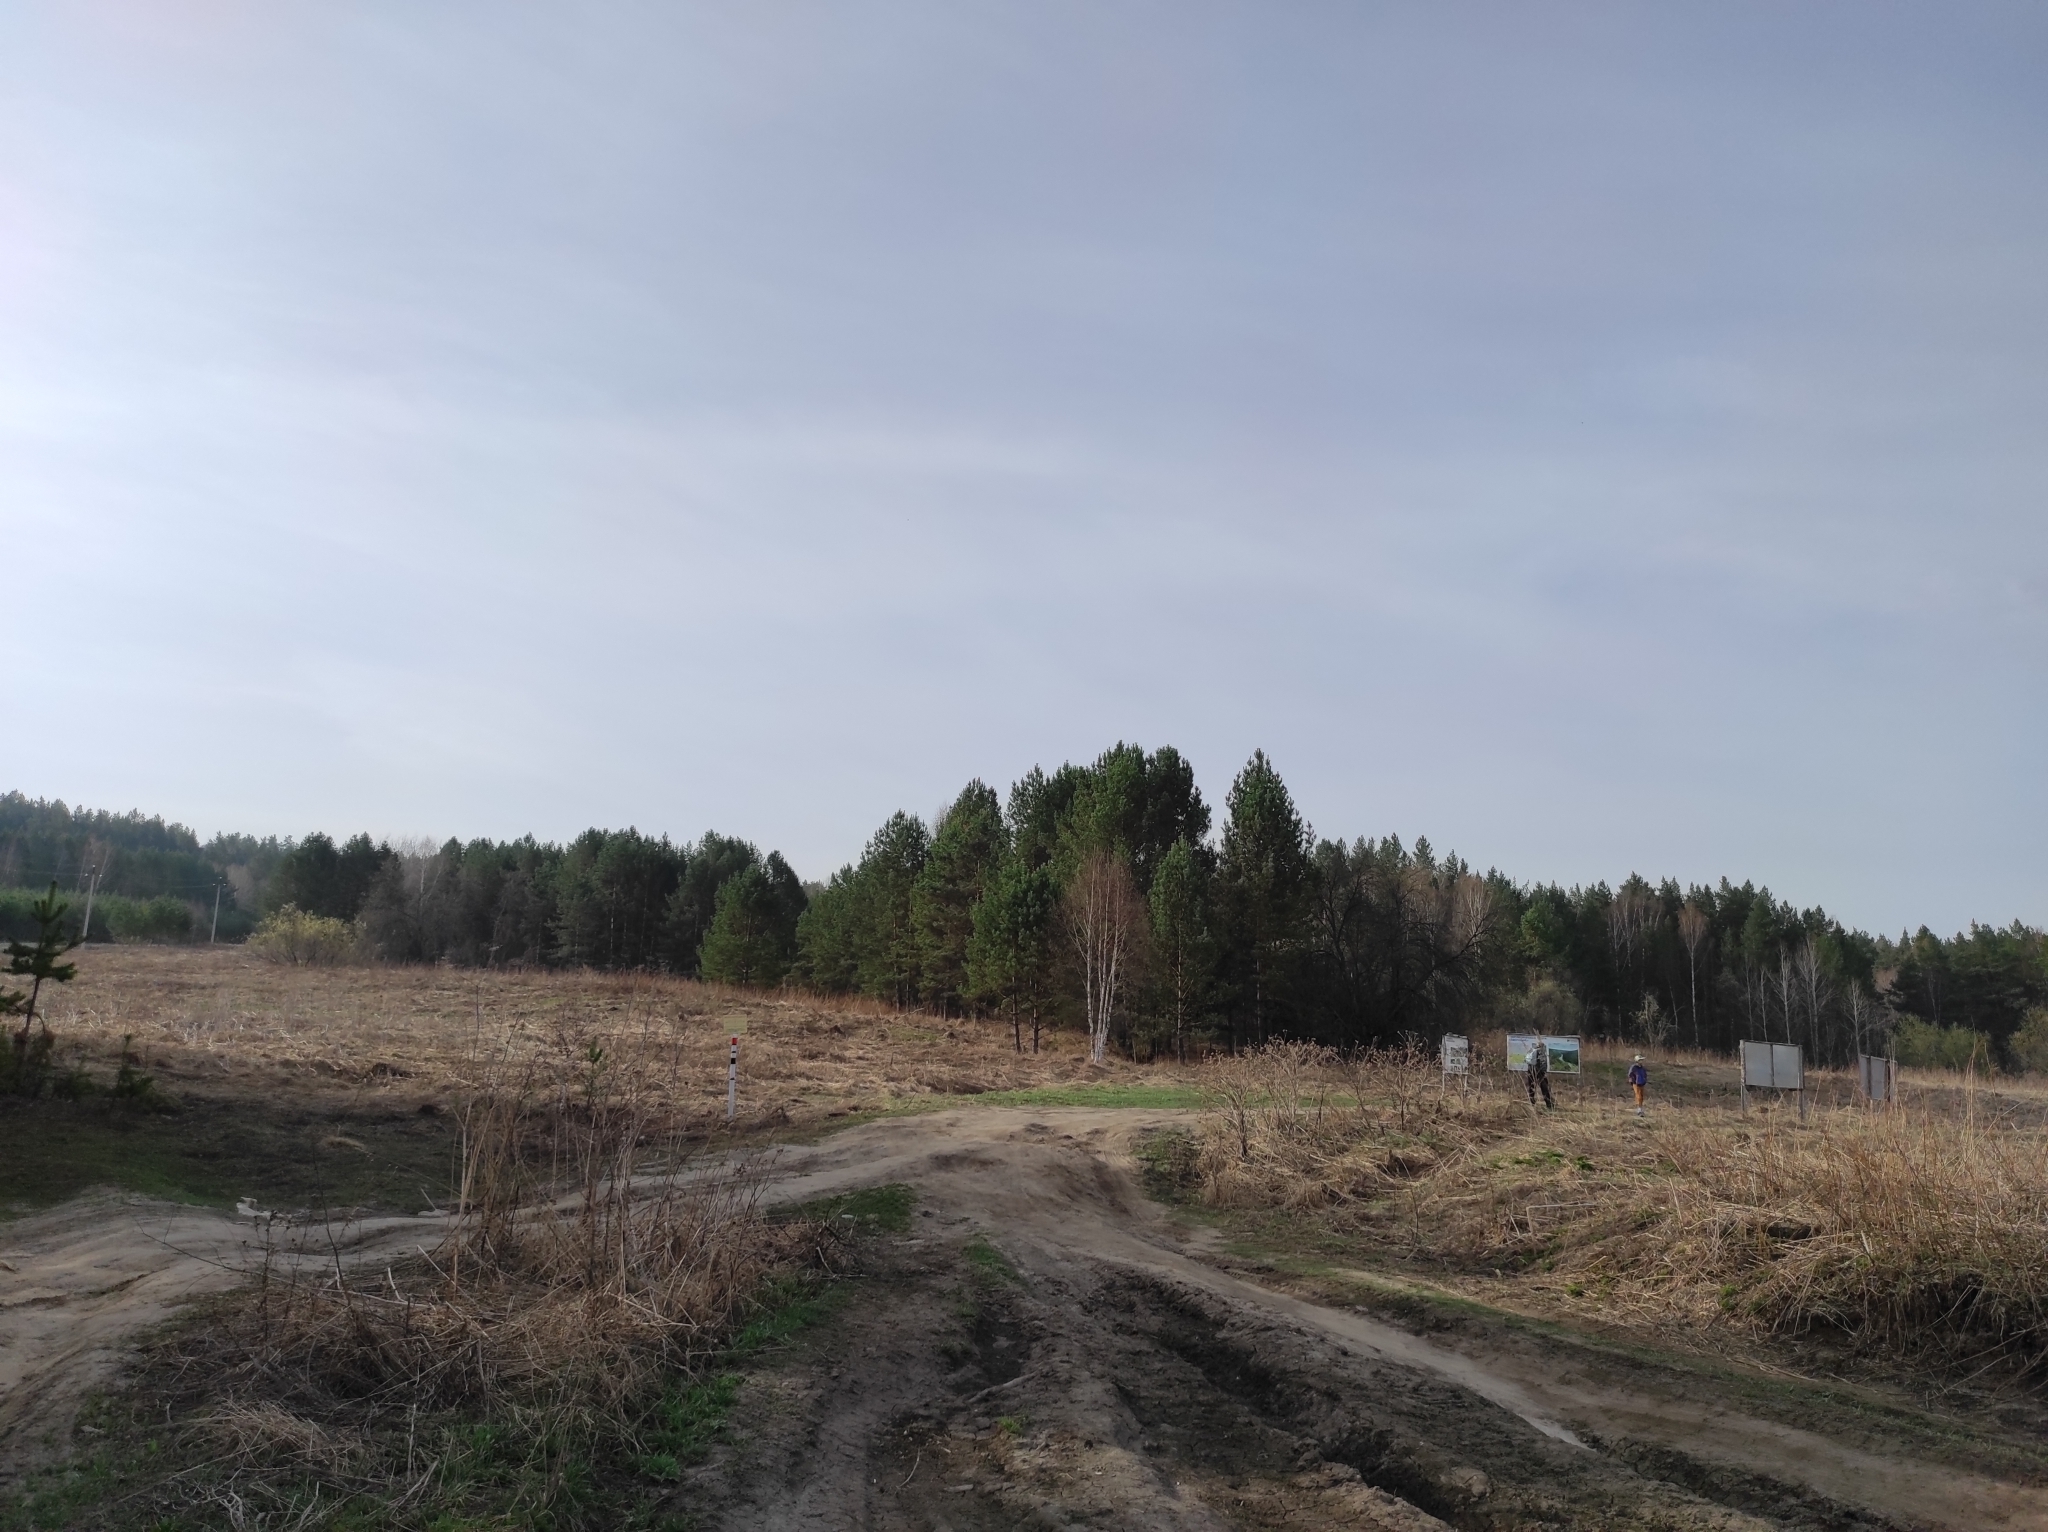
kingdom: Plantae
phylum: Tracheophyta
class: Pinopsida
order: Pinales
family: Pinaceae
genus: Pinus
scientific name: Pinus sylvestris
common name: Scots pine
